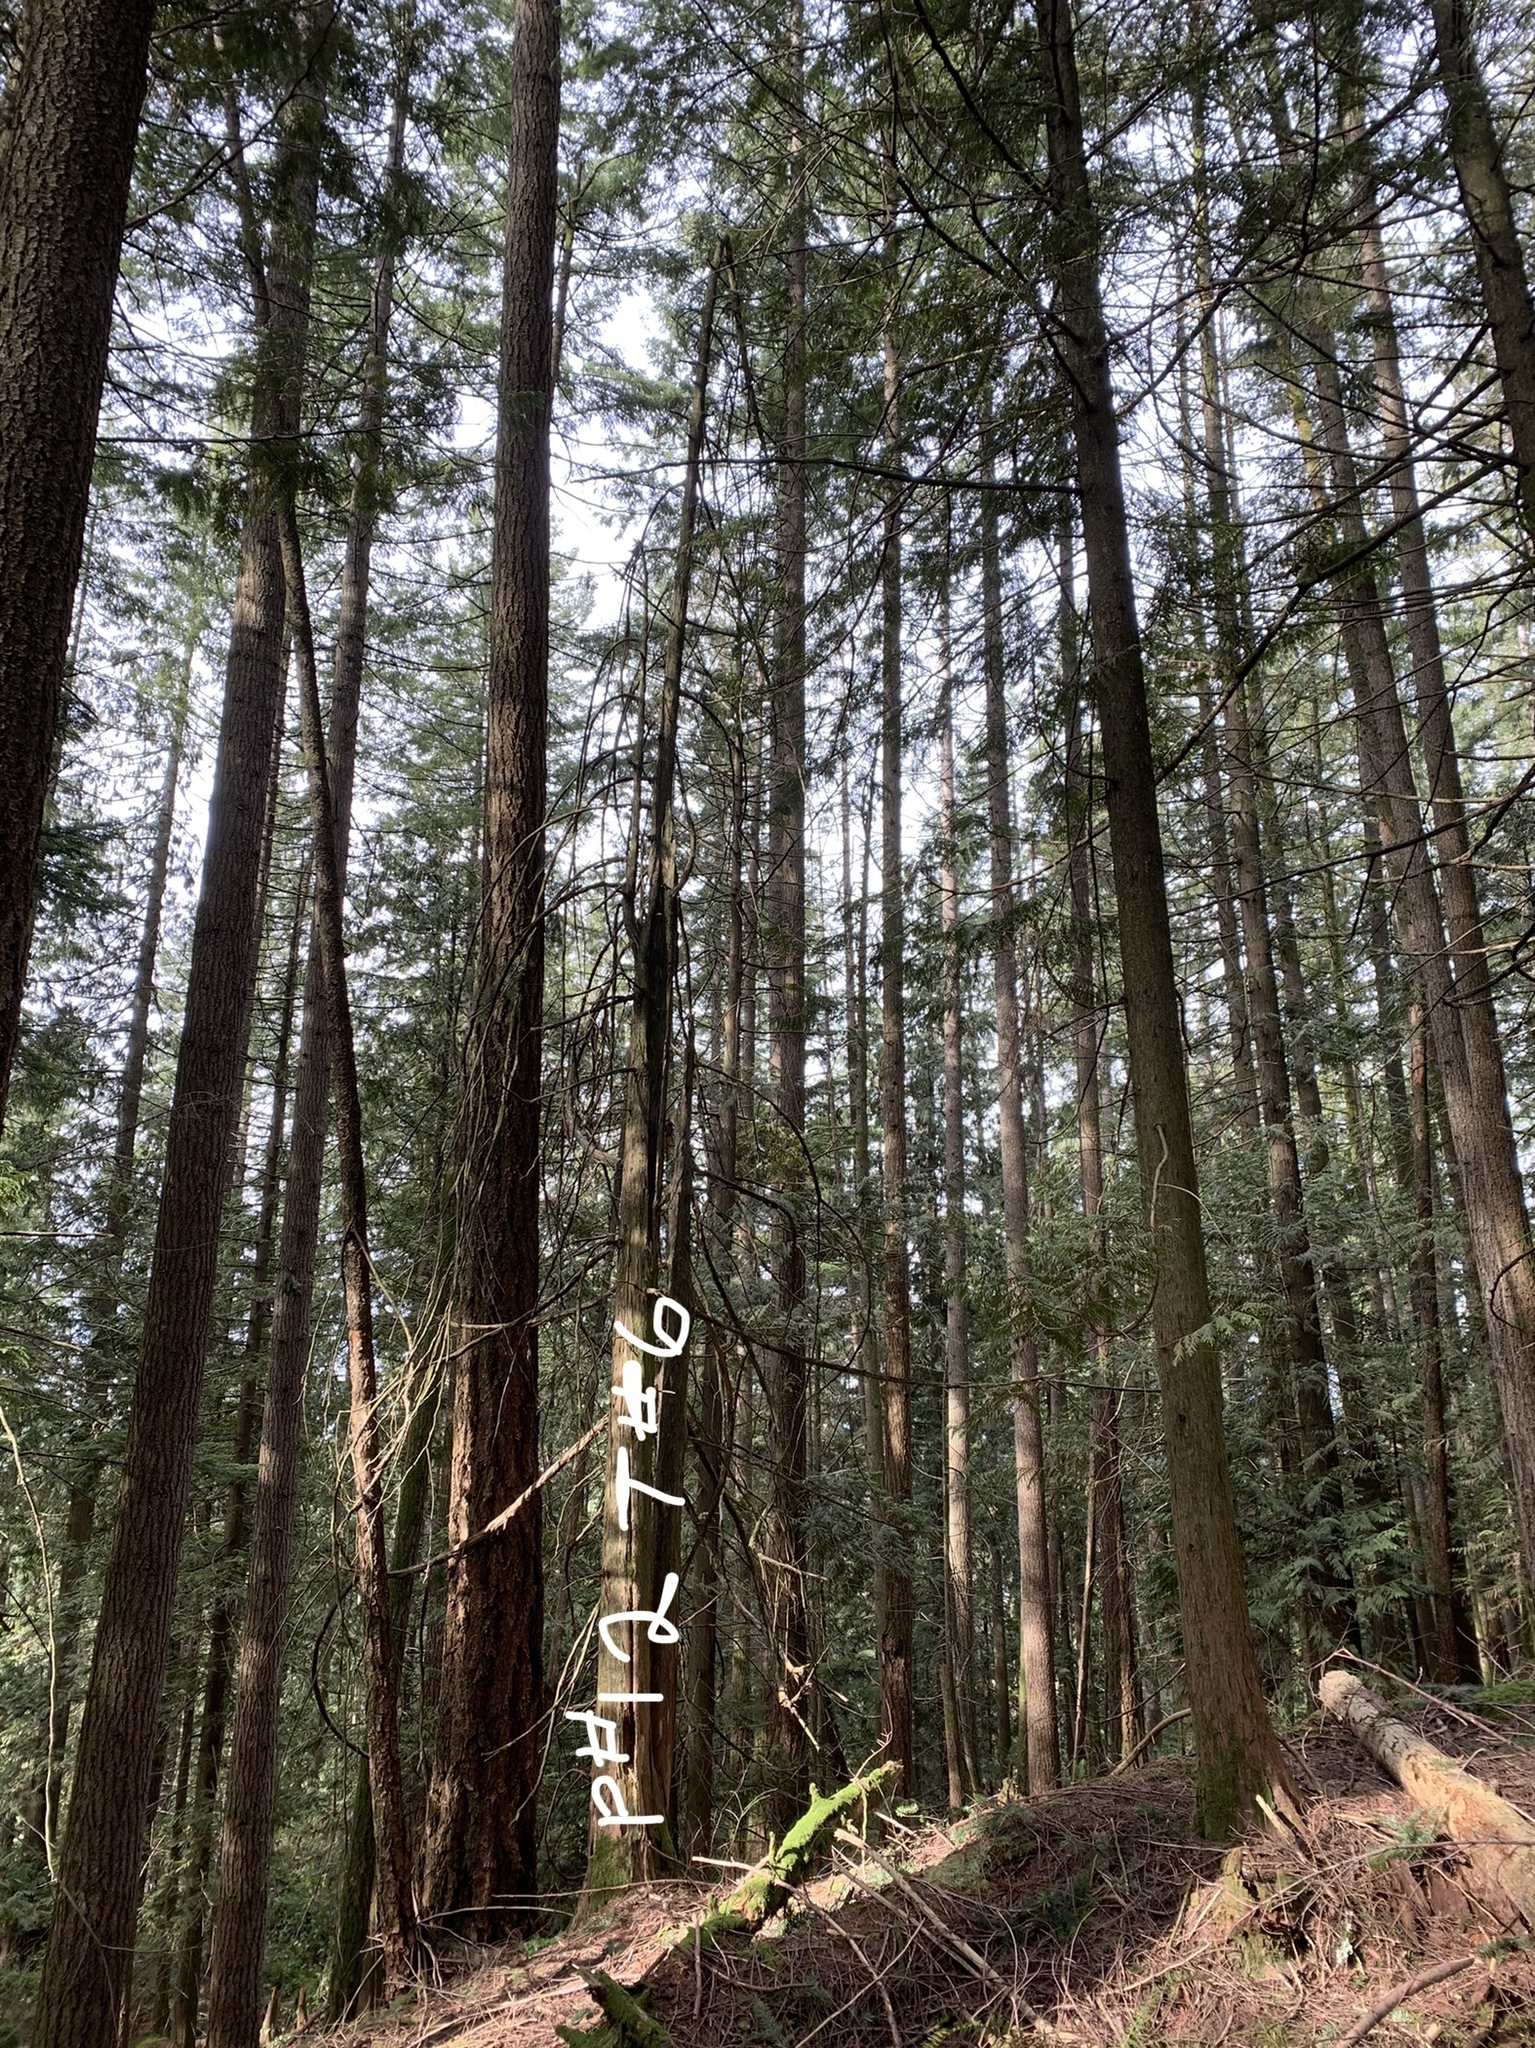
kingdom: Plantae
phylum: Tracheophyta
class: Pinopsida
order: Pinales
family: Cupressaceae
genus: Thuja
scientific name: Thuja plicata
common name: Western red-cedar
